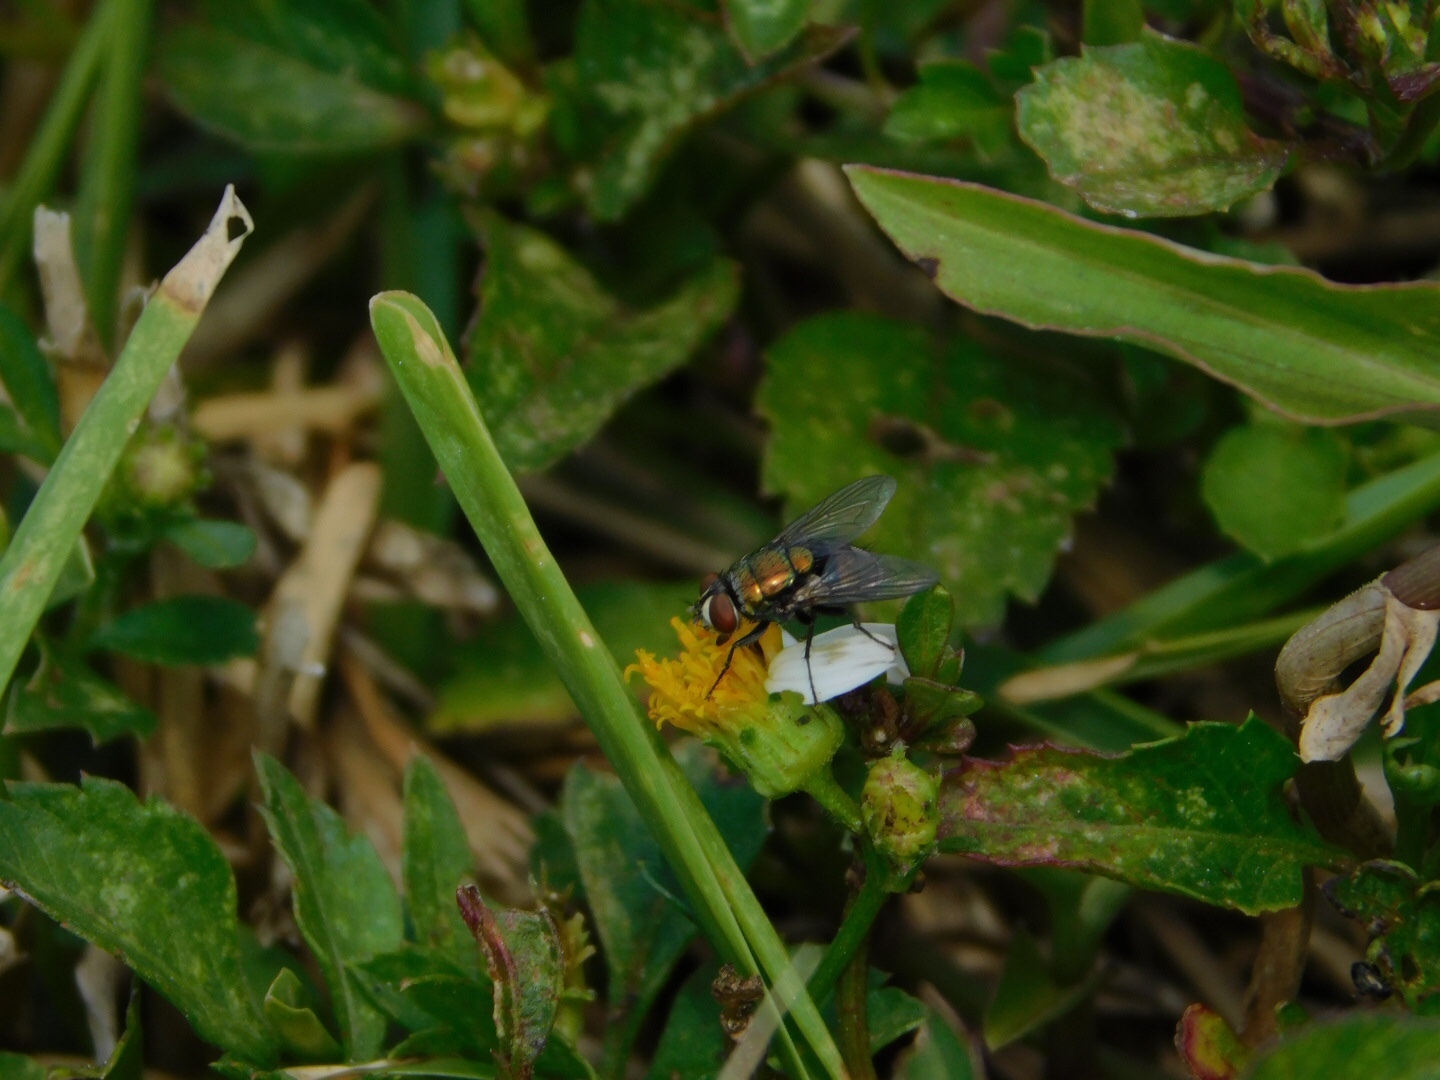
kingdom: Animalia
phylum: Arthropoda
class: Insecta
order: Diptera
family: Calliphoridae
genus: Lucilia
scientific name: Lucilia cuprina
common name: Sheep blow fly
